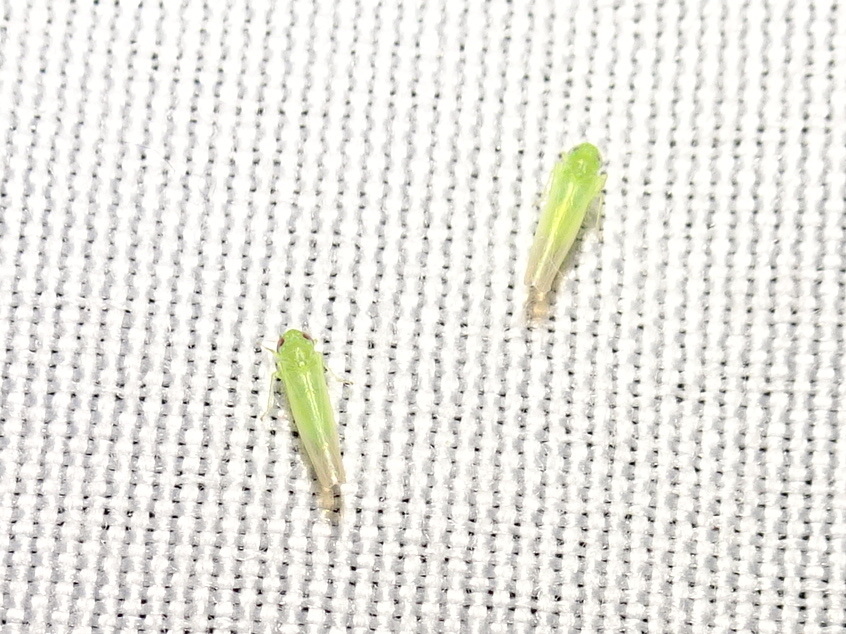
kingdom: Animalia
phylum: Arthropoda
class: Insecta
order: Hemiptera
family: Cicadellidae
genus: Empoasca
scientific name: Empoasca fabae
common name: Potato leafhopper
